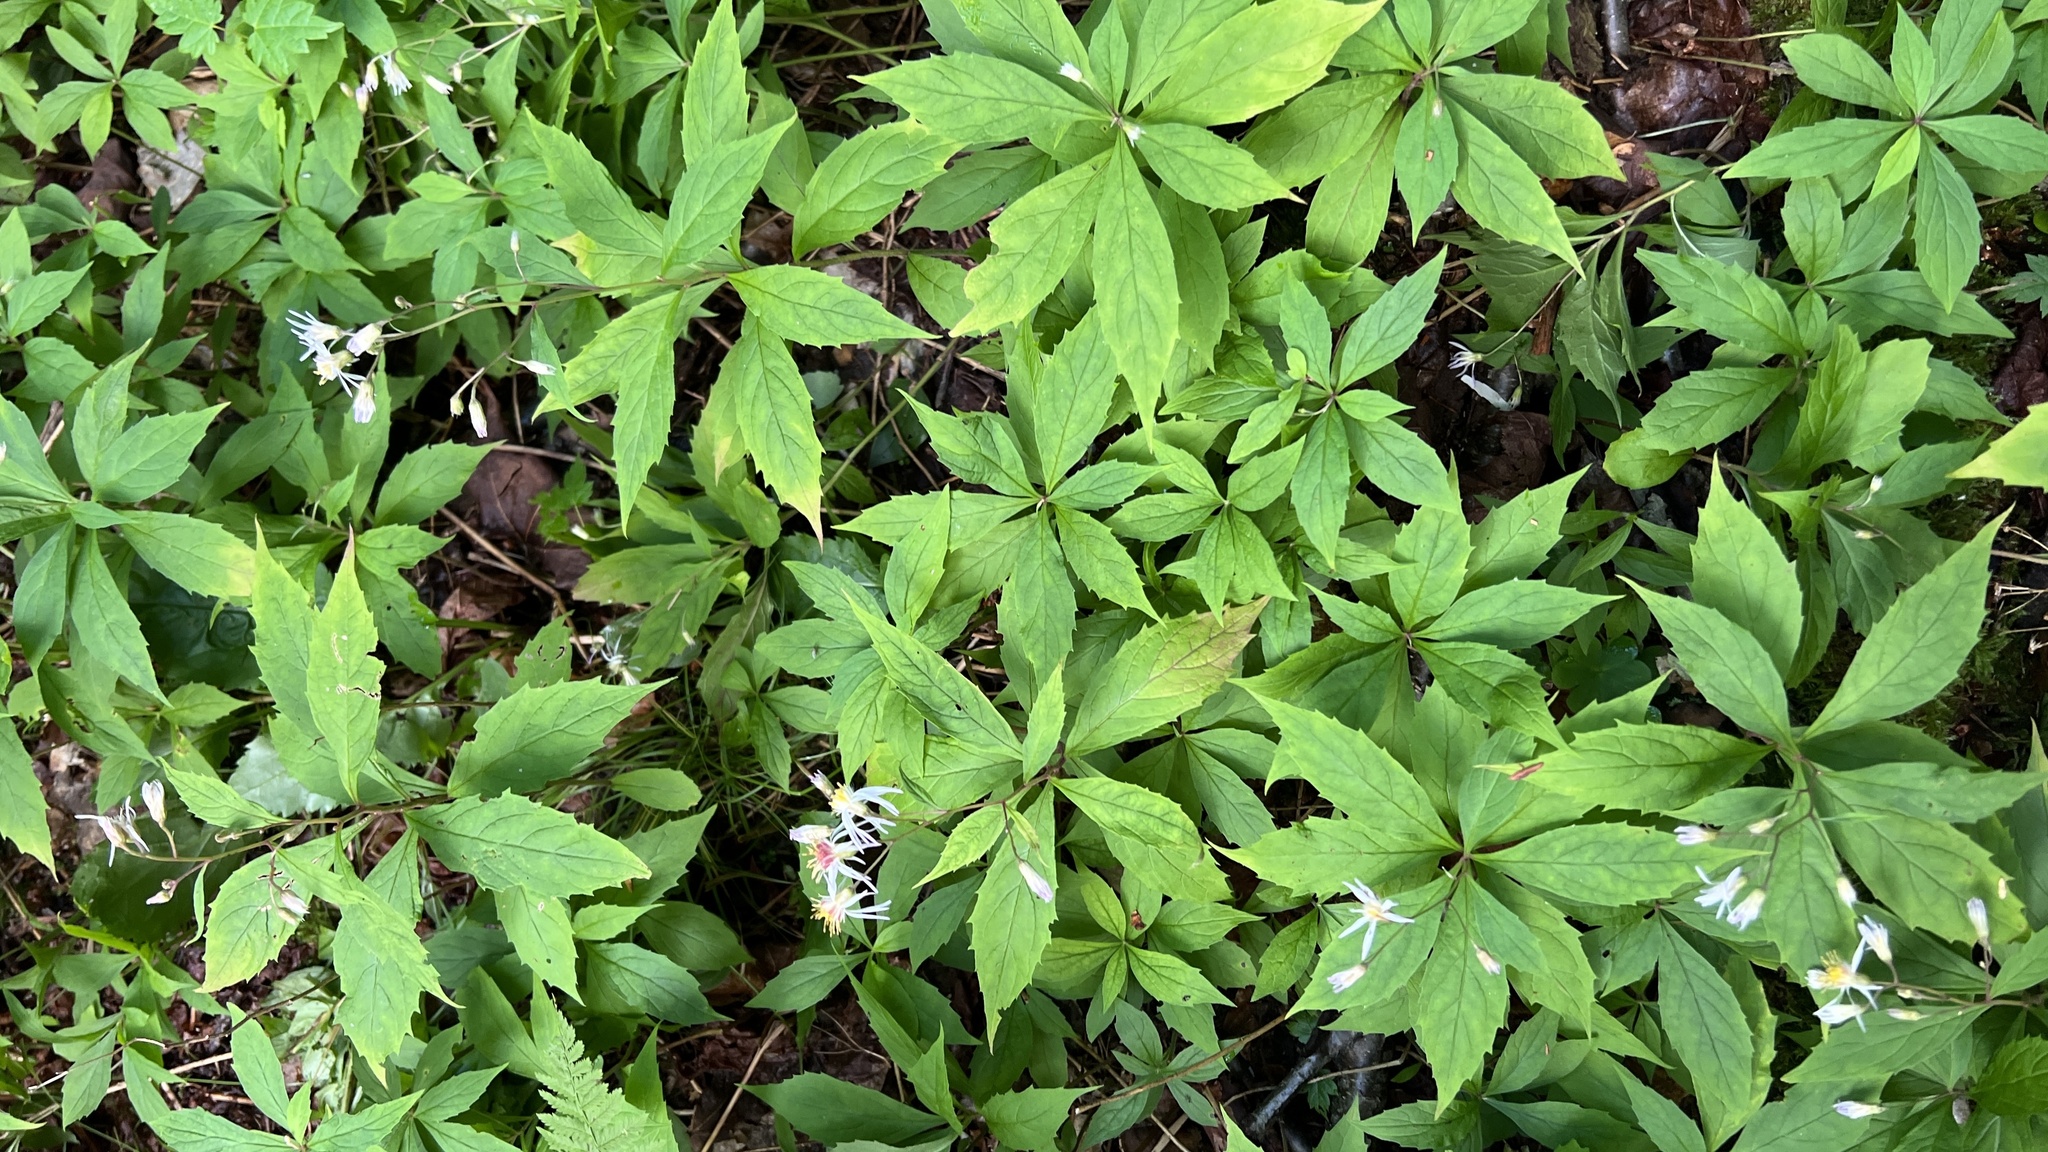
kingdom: Plantae
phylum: Tracheophyta
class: Magnoliopsida
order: Asterales
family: Asteraceae
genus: Oclemena
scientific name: Oclemena acuminata
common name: Mountain aster
